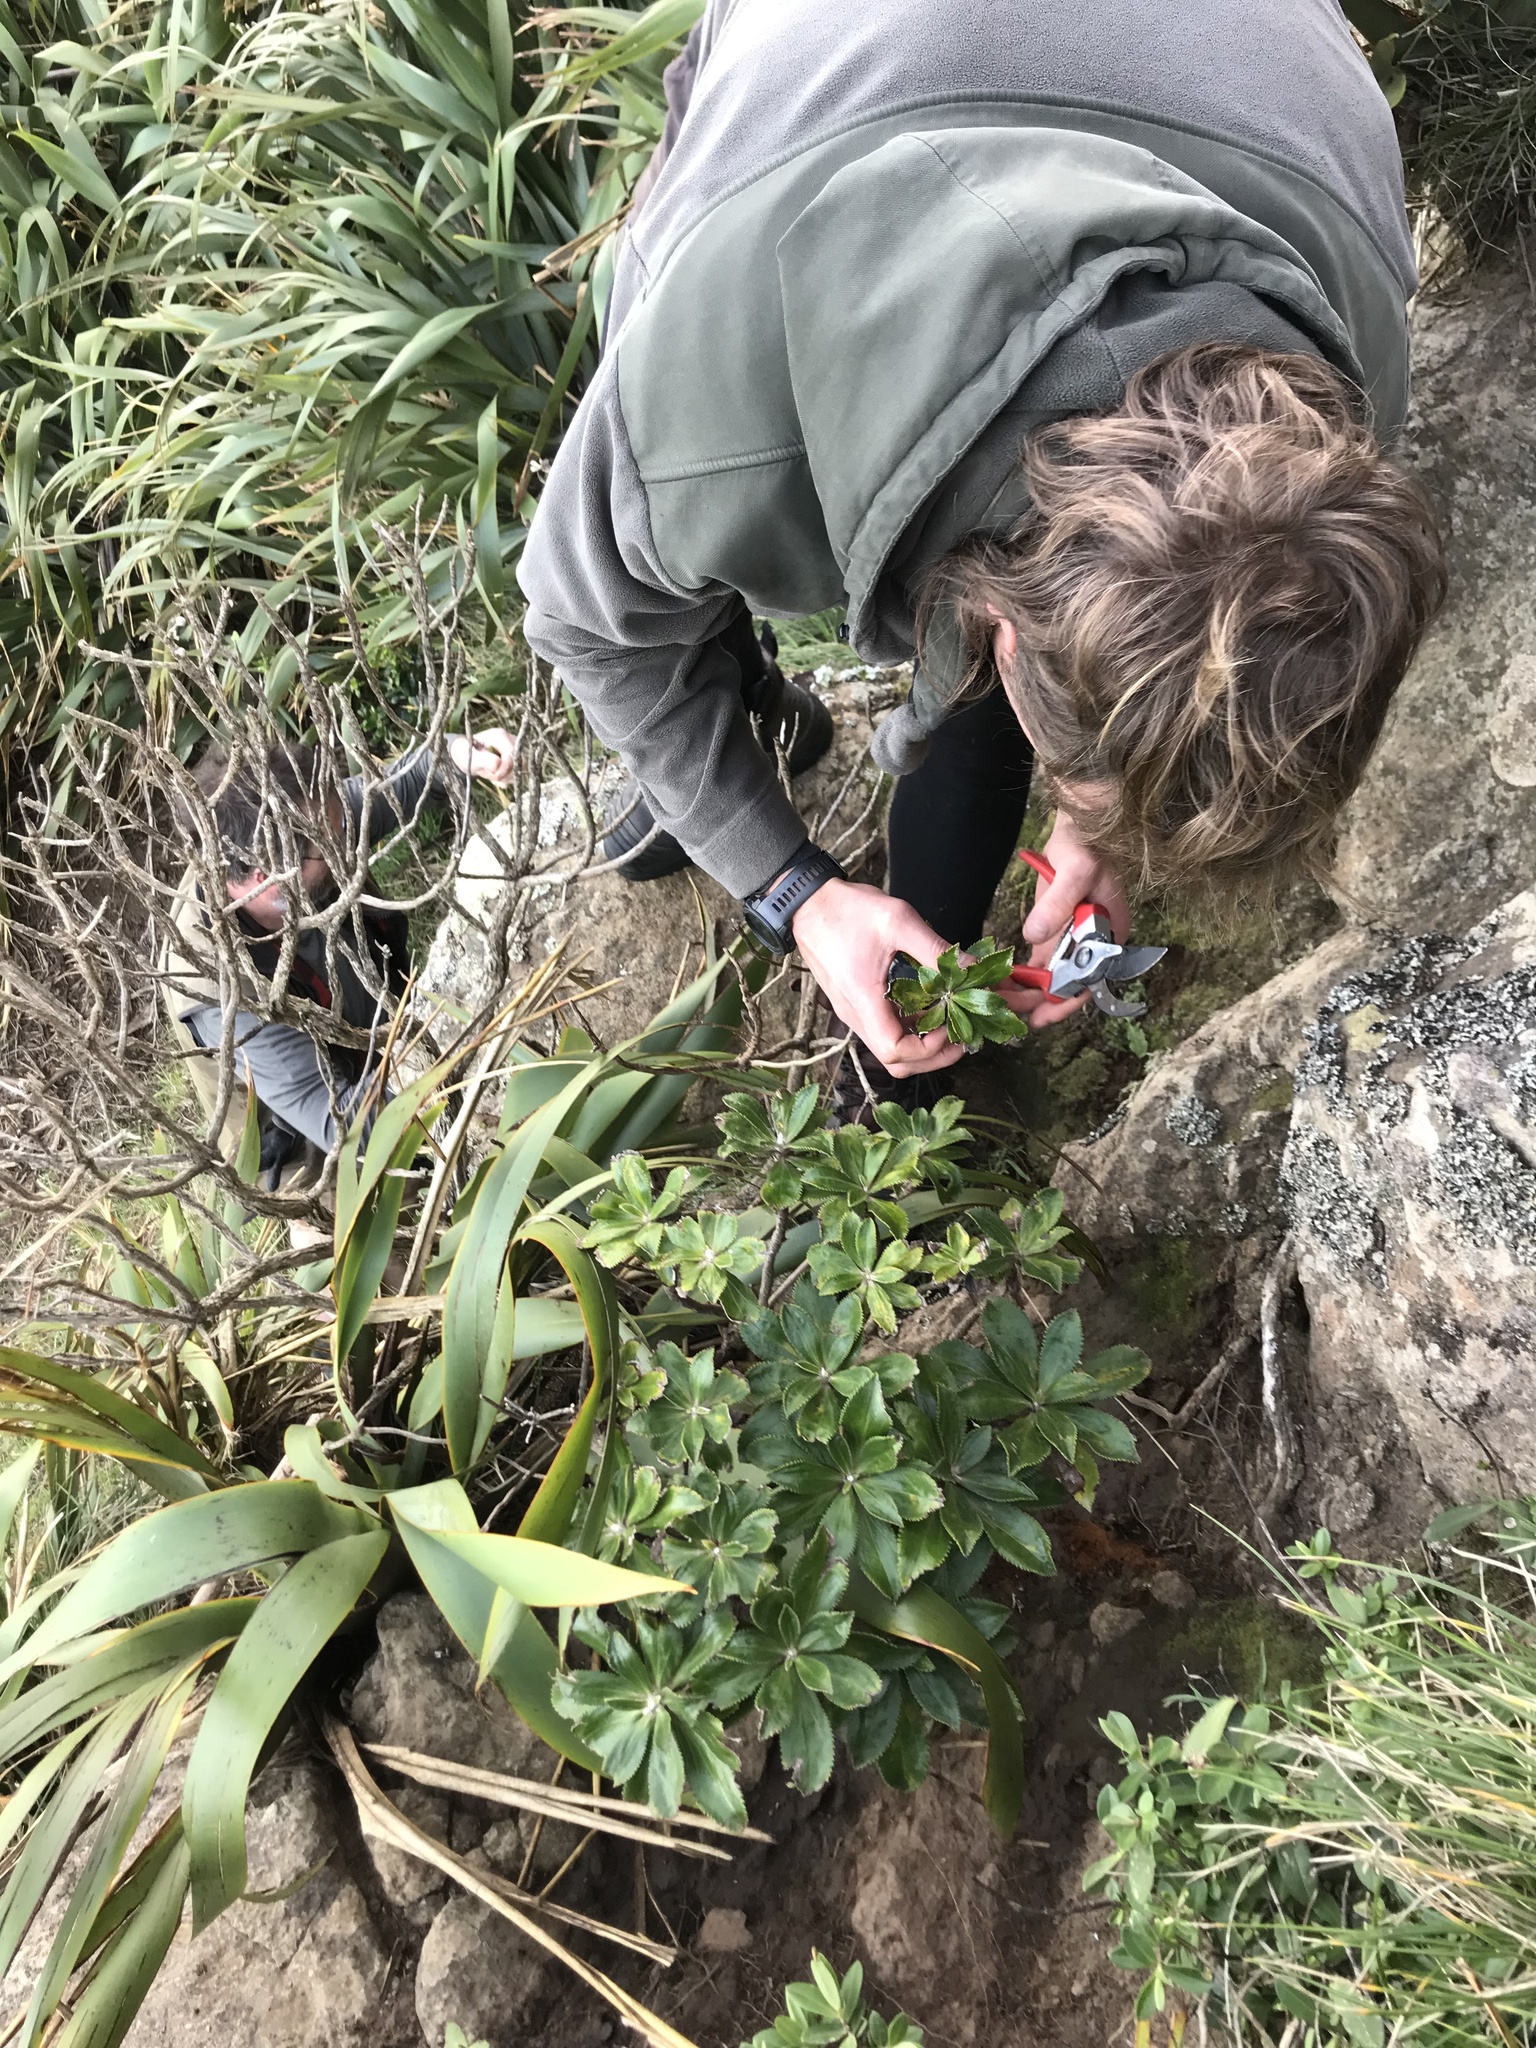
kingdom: Plantae
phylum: Tracheophyta
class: Magnoliopsida
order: Asterales
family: Asteraceae
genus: Macrolearia
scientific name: Macrolearia chathamica
